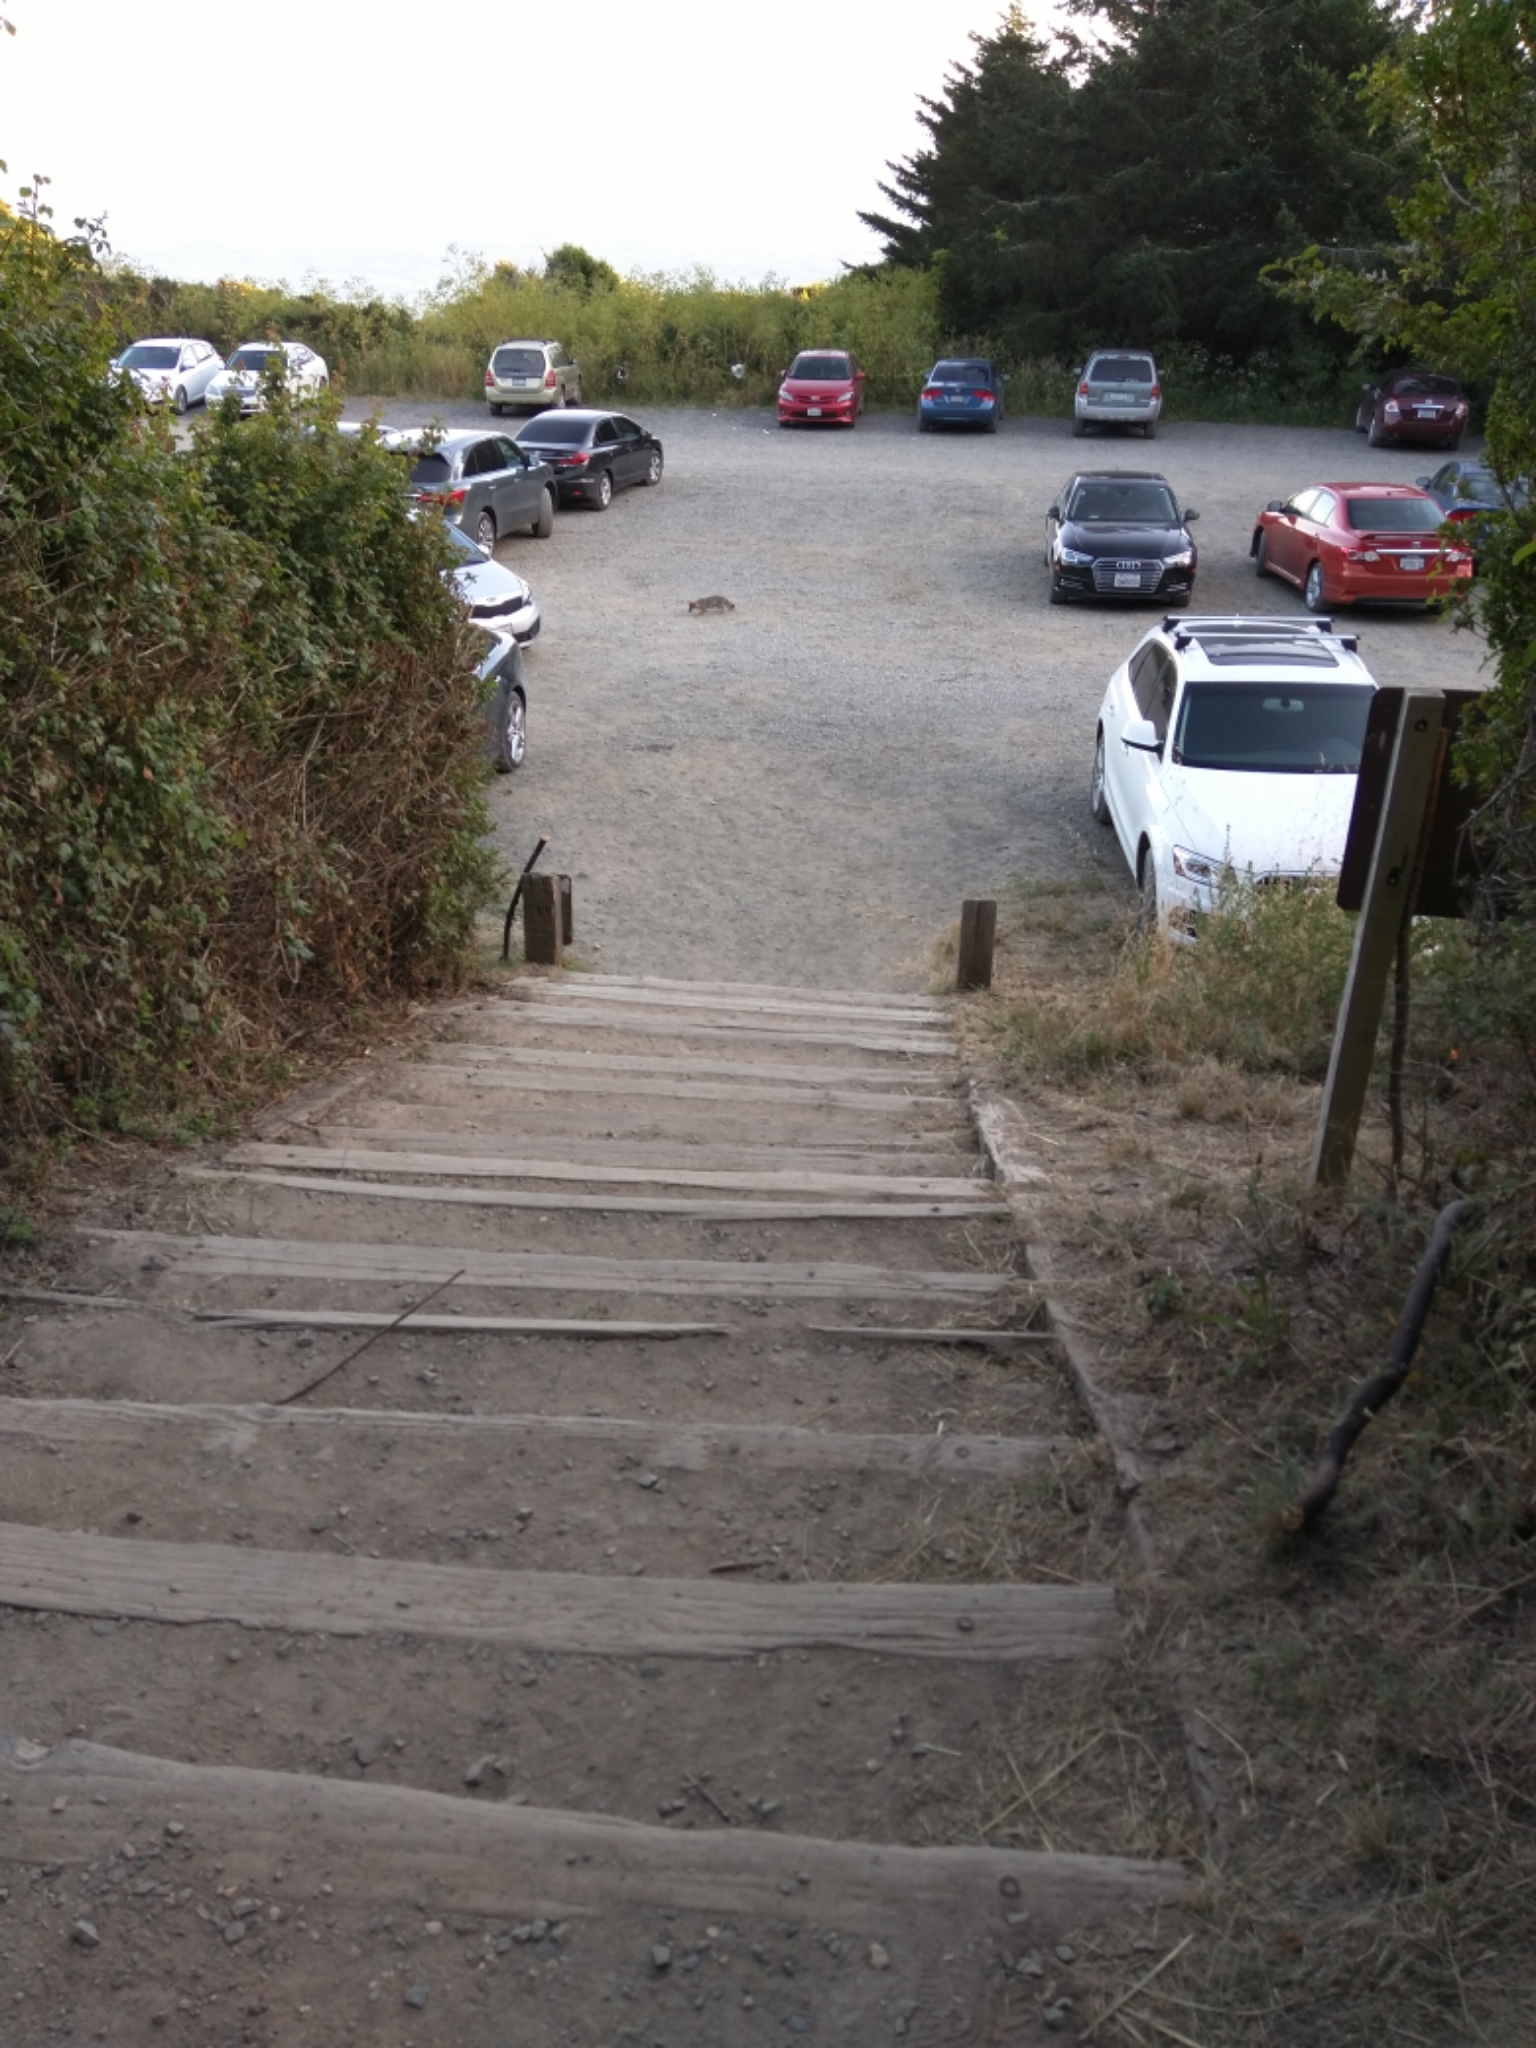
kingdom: Animalia
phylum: Chordata
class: Mammalia
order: Carnivora
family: Canidae
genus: Urocyon
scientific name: Urocyon cinereoargenteus
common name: Gray fox
